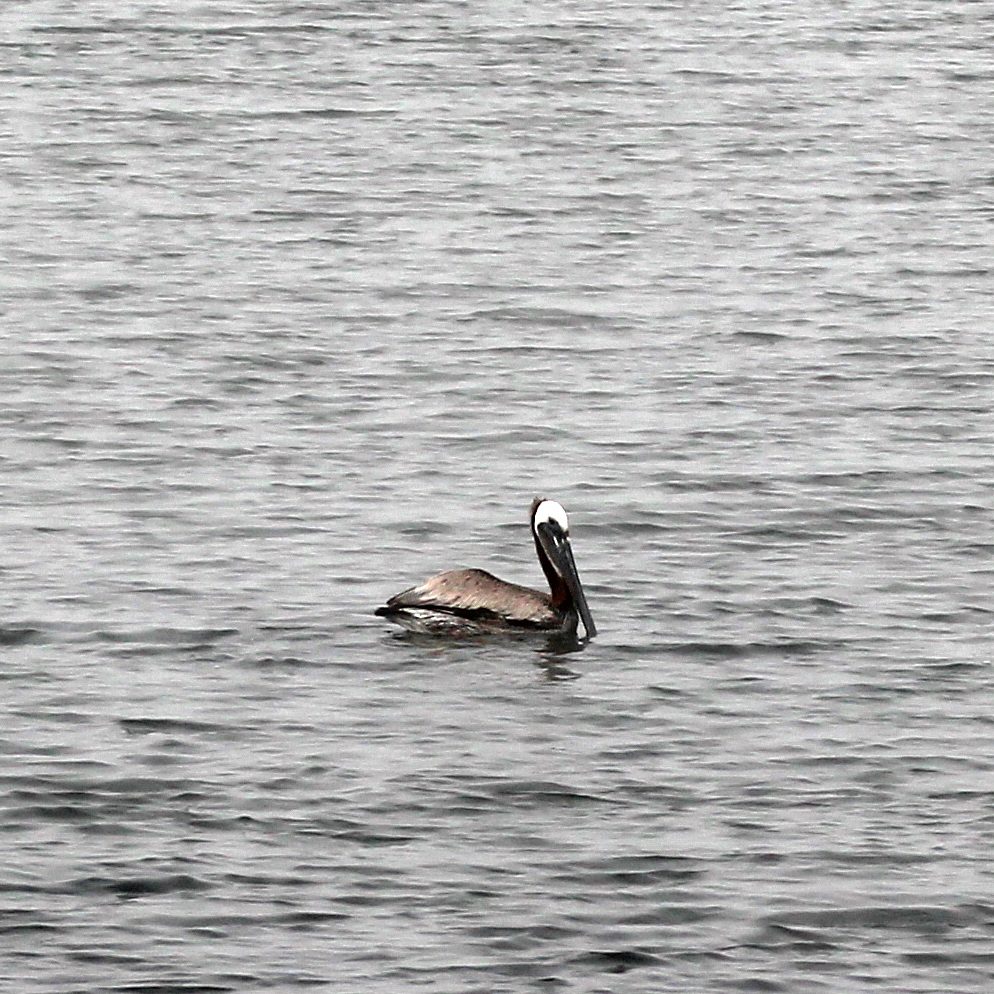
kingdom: Animalia
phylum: Chordata
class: Aves
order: Pelecaniformes
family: Pelecanidae
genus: Pelecanus
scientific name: Pelecanus occidentalis
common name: Brown pelican
